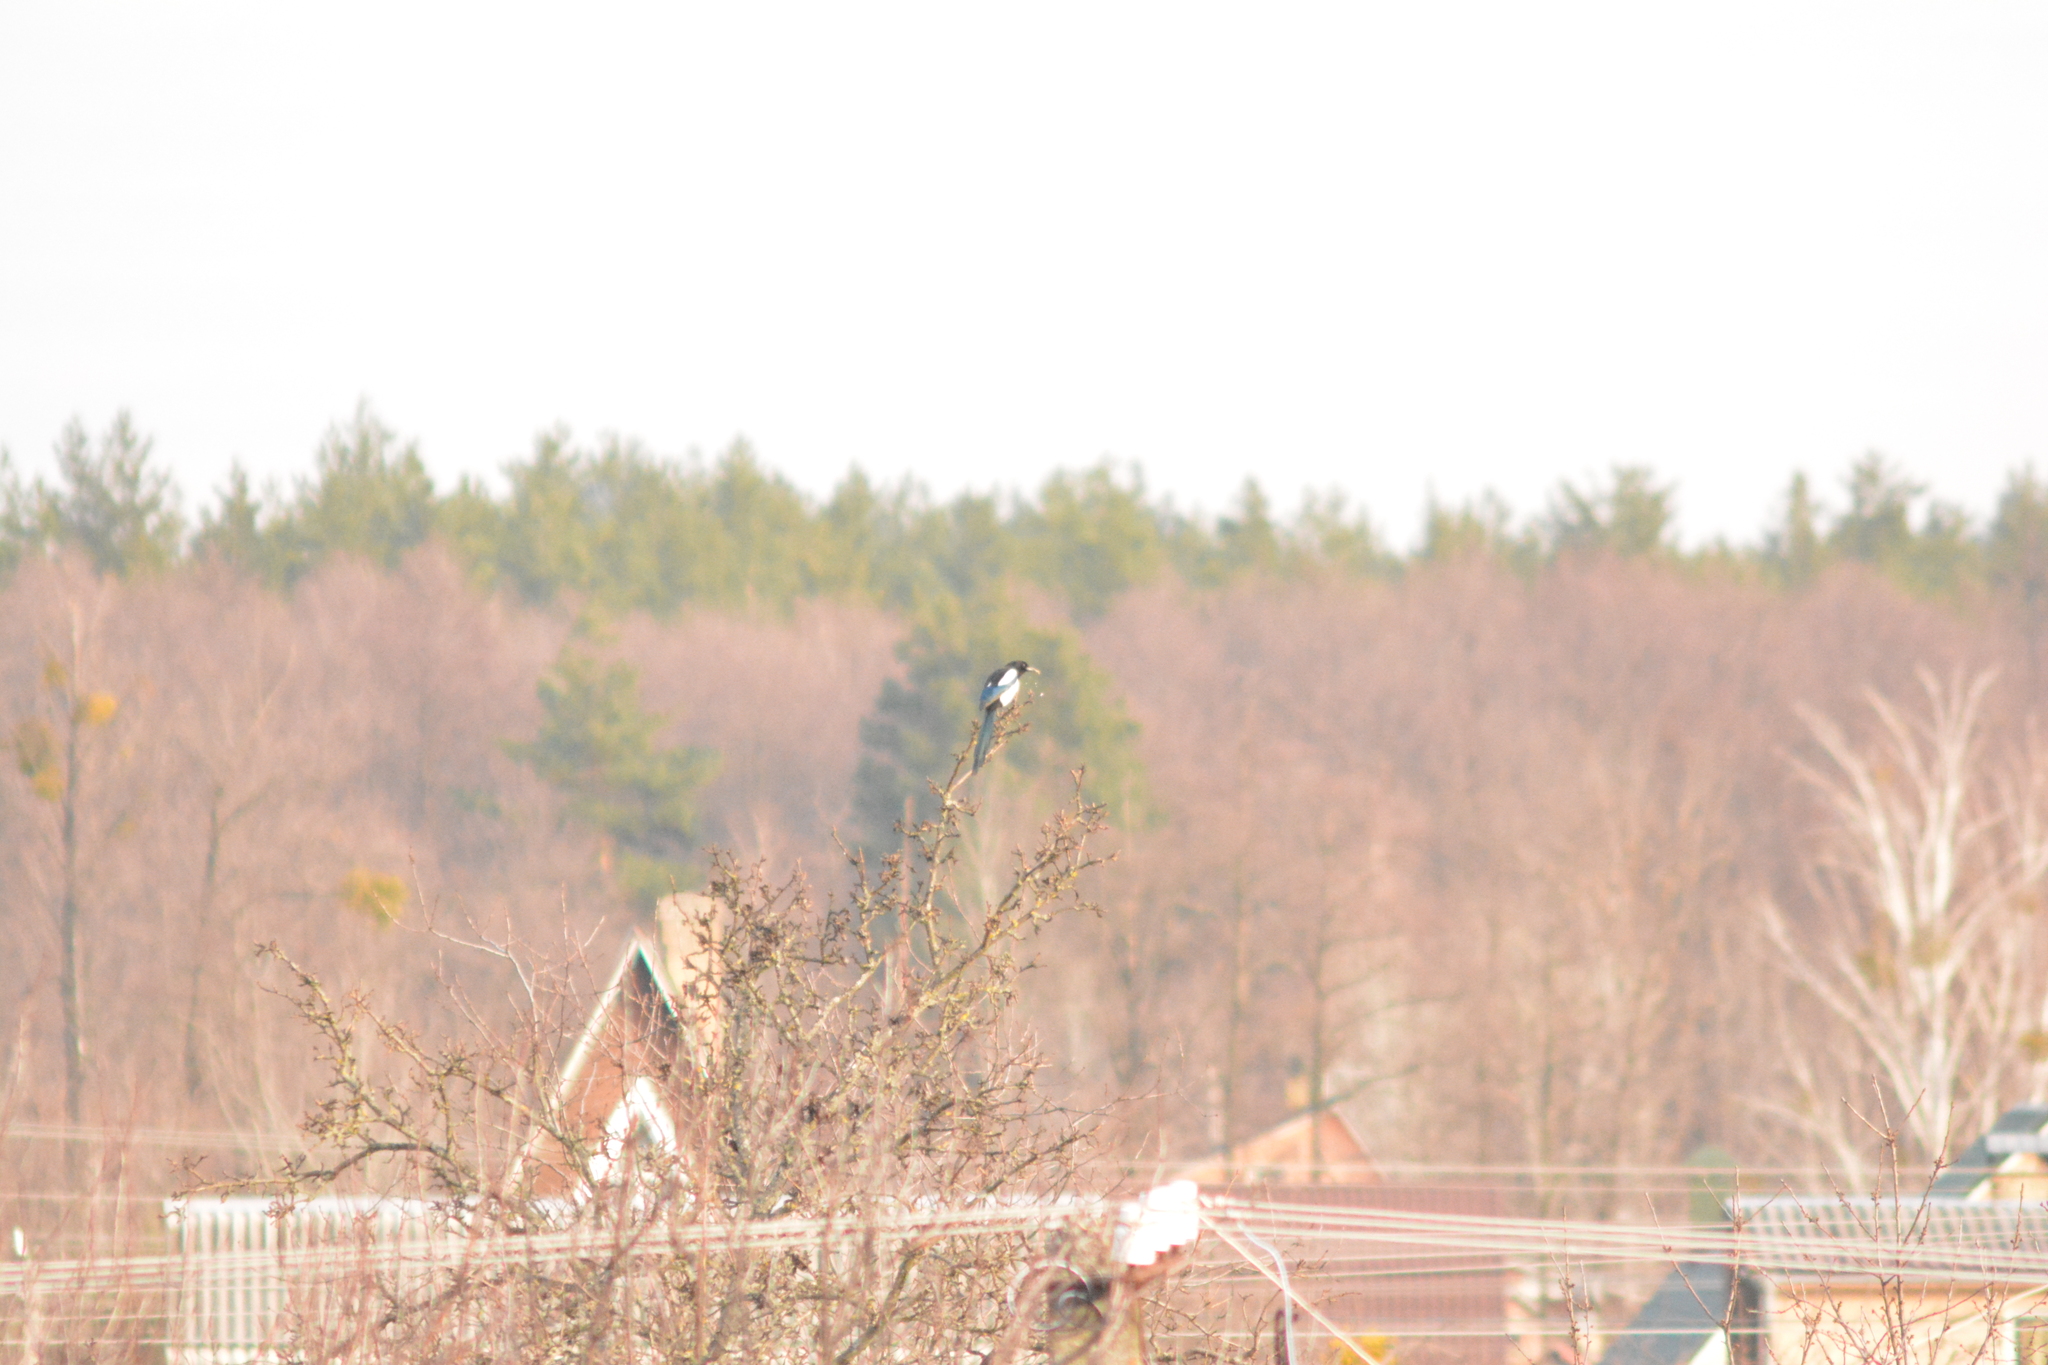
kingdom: Animalia
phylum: Chordata
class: Aves
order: Passeriformes
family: Corvidae
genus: Pica
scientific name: Pica pica
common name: Eurasian magpie
